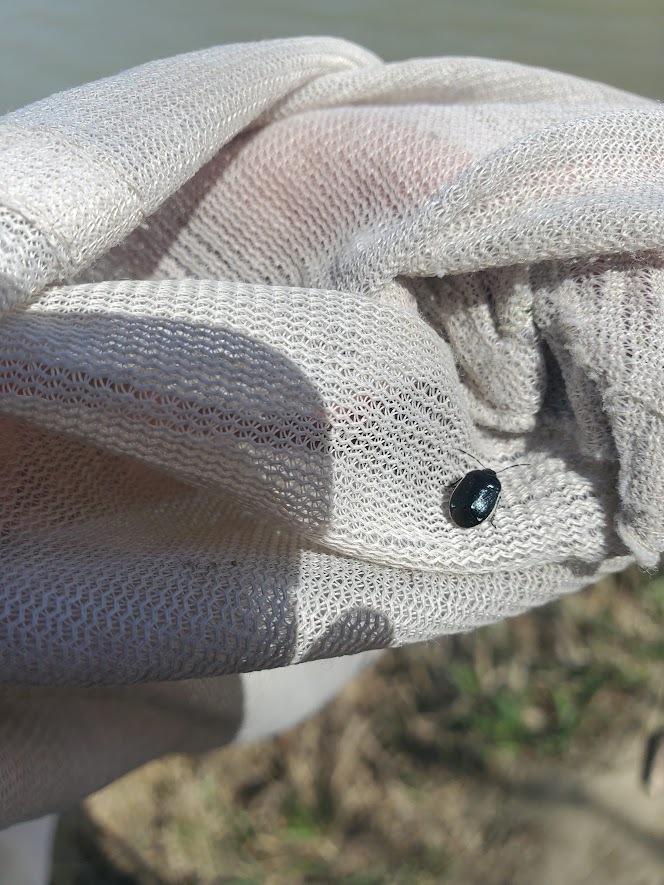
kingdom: Animalia
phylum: Arthropoda
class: Insecta
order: Hemiptera
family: Cydnidae
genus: Sehirus
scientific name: Sehirus cinctus
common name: White-margined burrower bug
